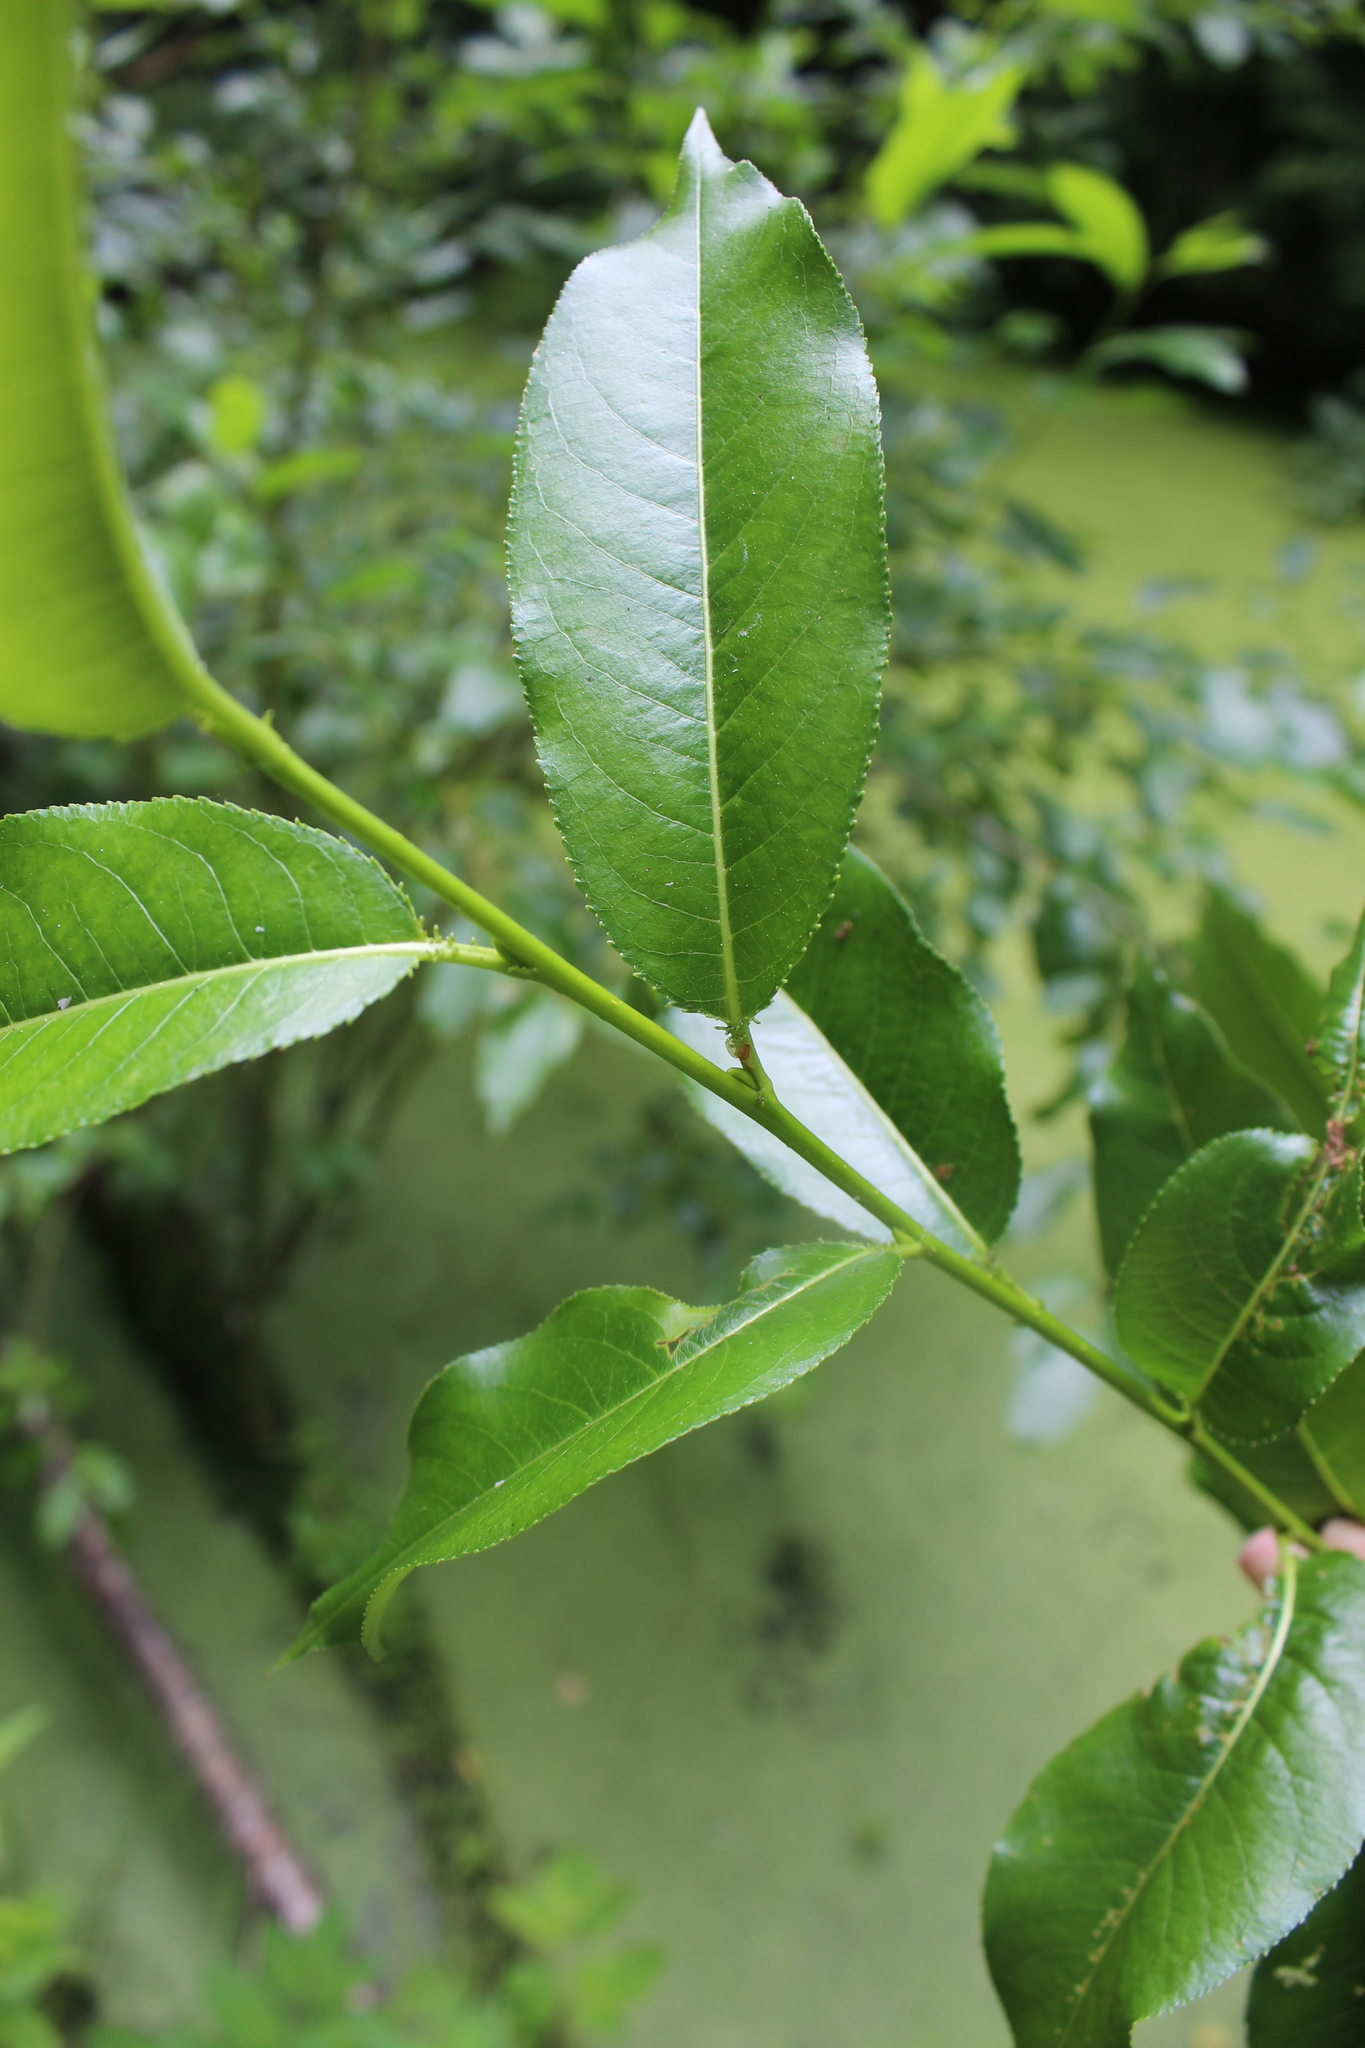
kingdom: Plantae
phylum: Tracheophyta
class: Magnoliopsida
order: Malpighiales
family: Salicaceae
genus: Salix
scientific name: Salix pentandra
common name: Bay willow
